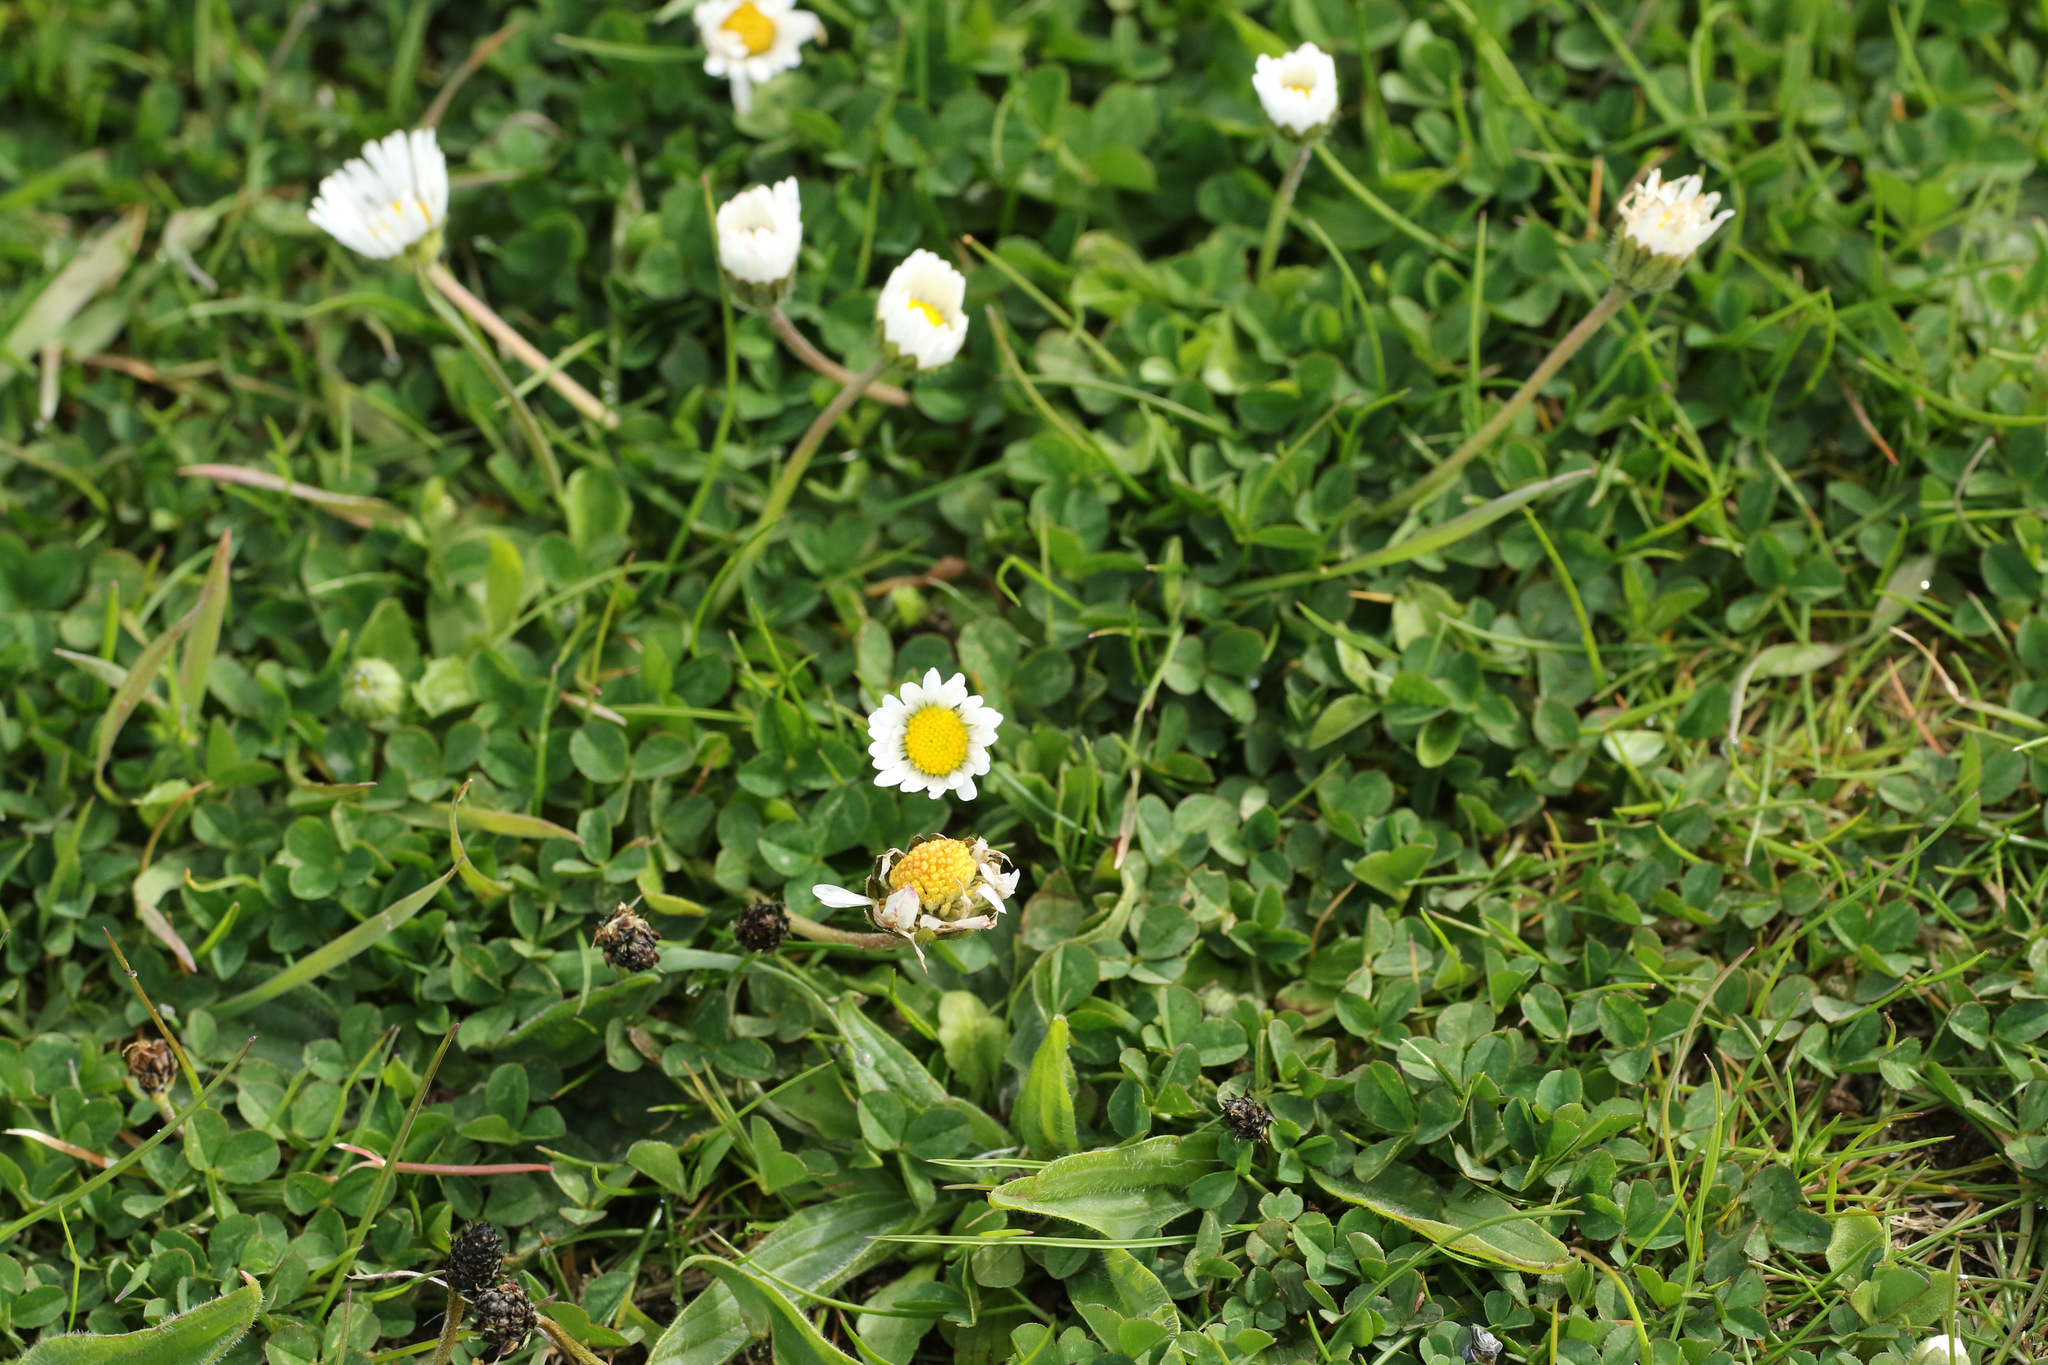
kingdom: Plantae
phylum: Tracheophyta
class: Magnoliopsida
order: Asterales
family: Asteraceae
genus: Bellis
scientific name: Bellis perennis
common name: Lawndaisy
